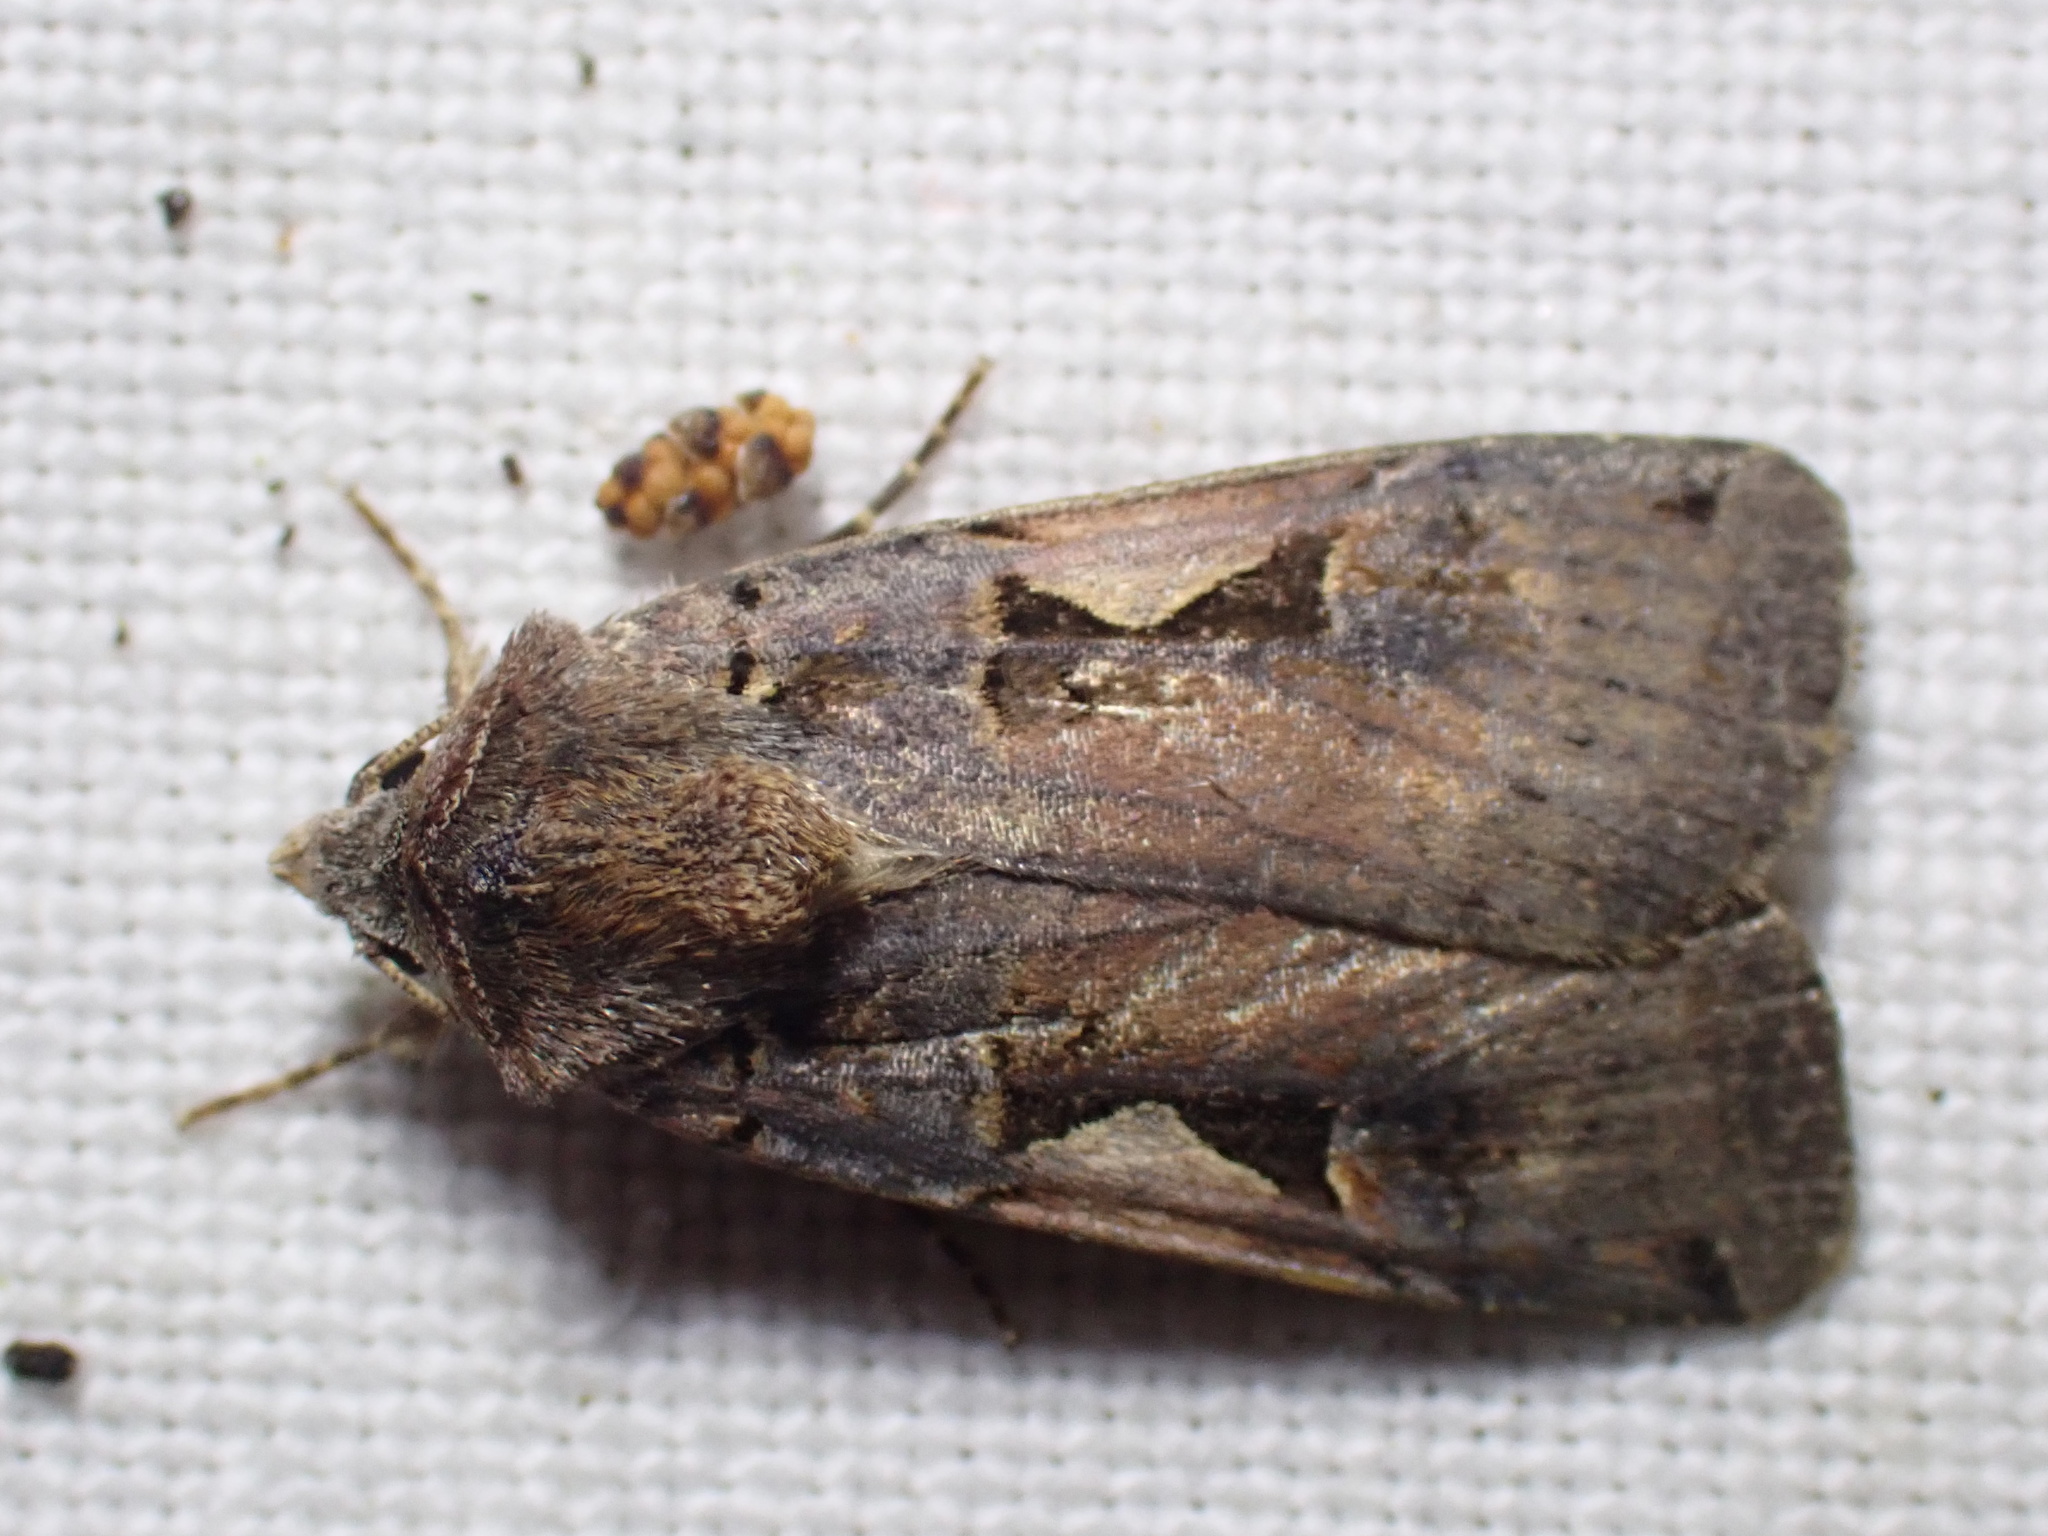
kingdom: Animalia
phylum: Arthropoda
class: Insecta
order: Lepidoptera
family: Noctuidae
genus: Xestia
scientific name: Xestia c-nigrum
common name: Setaceous hebrew character
